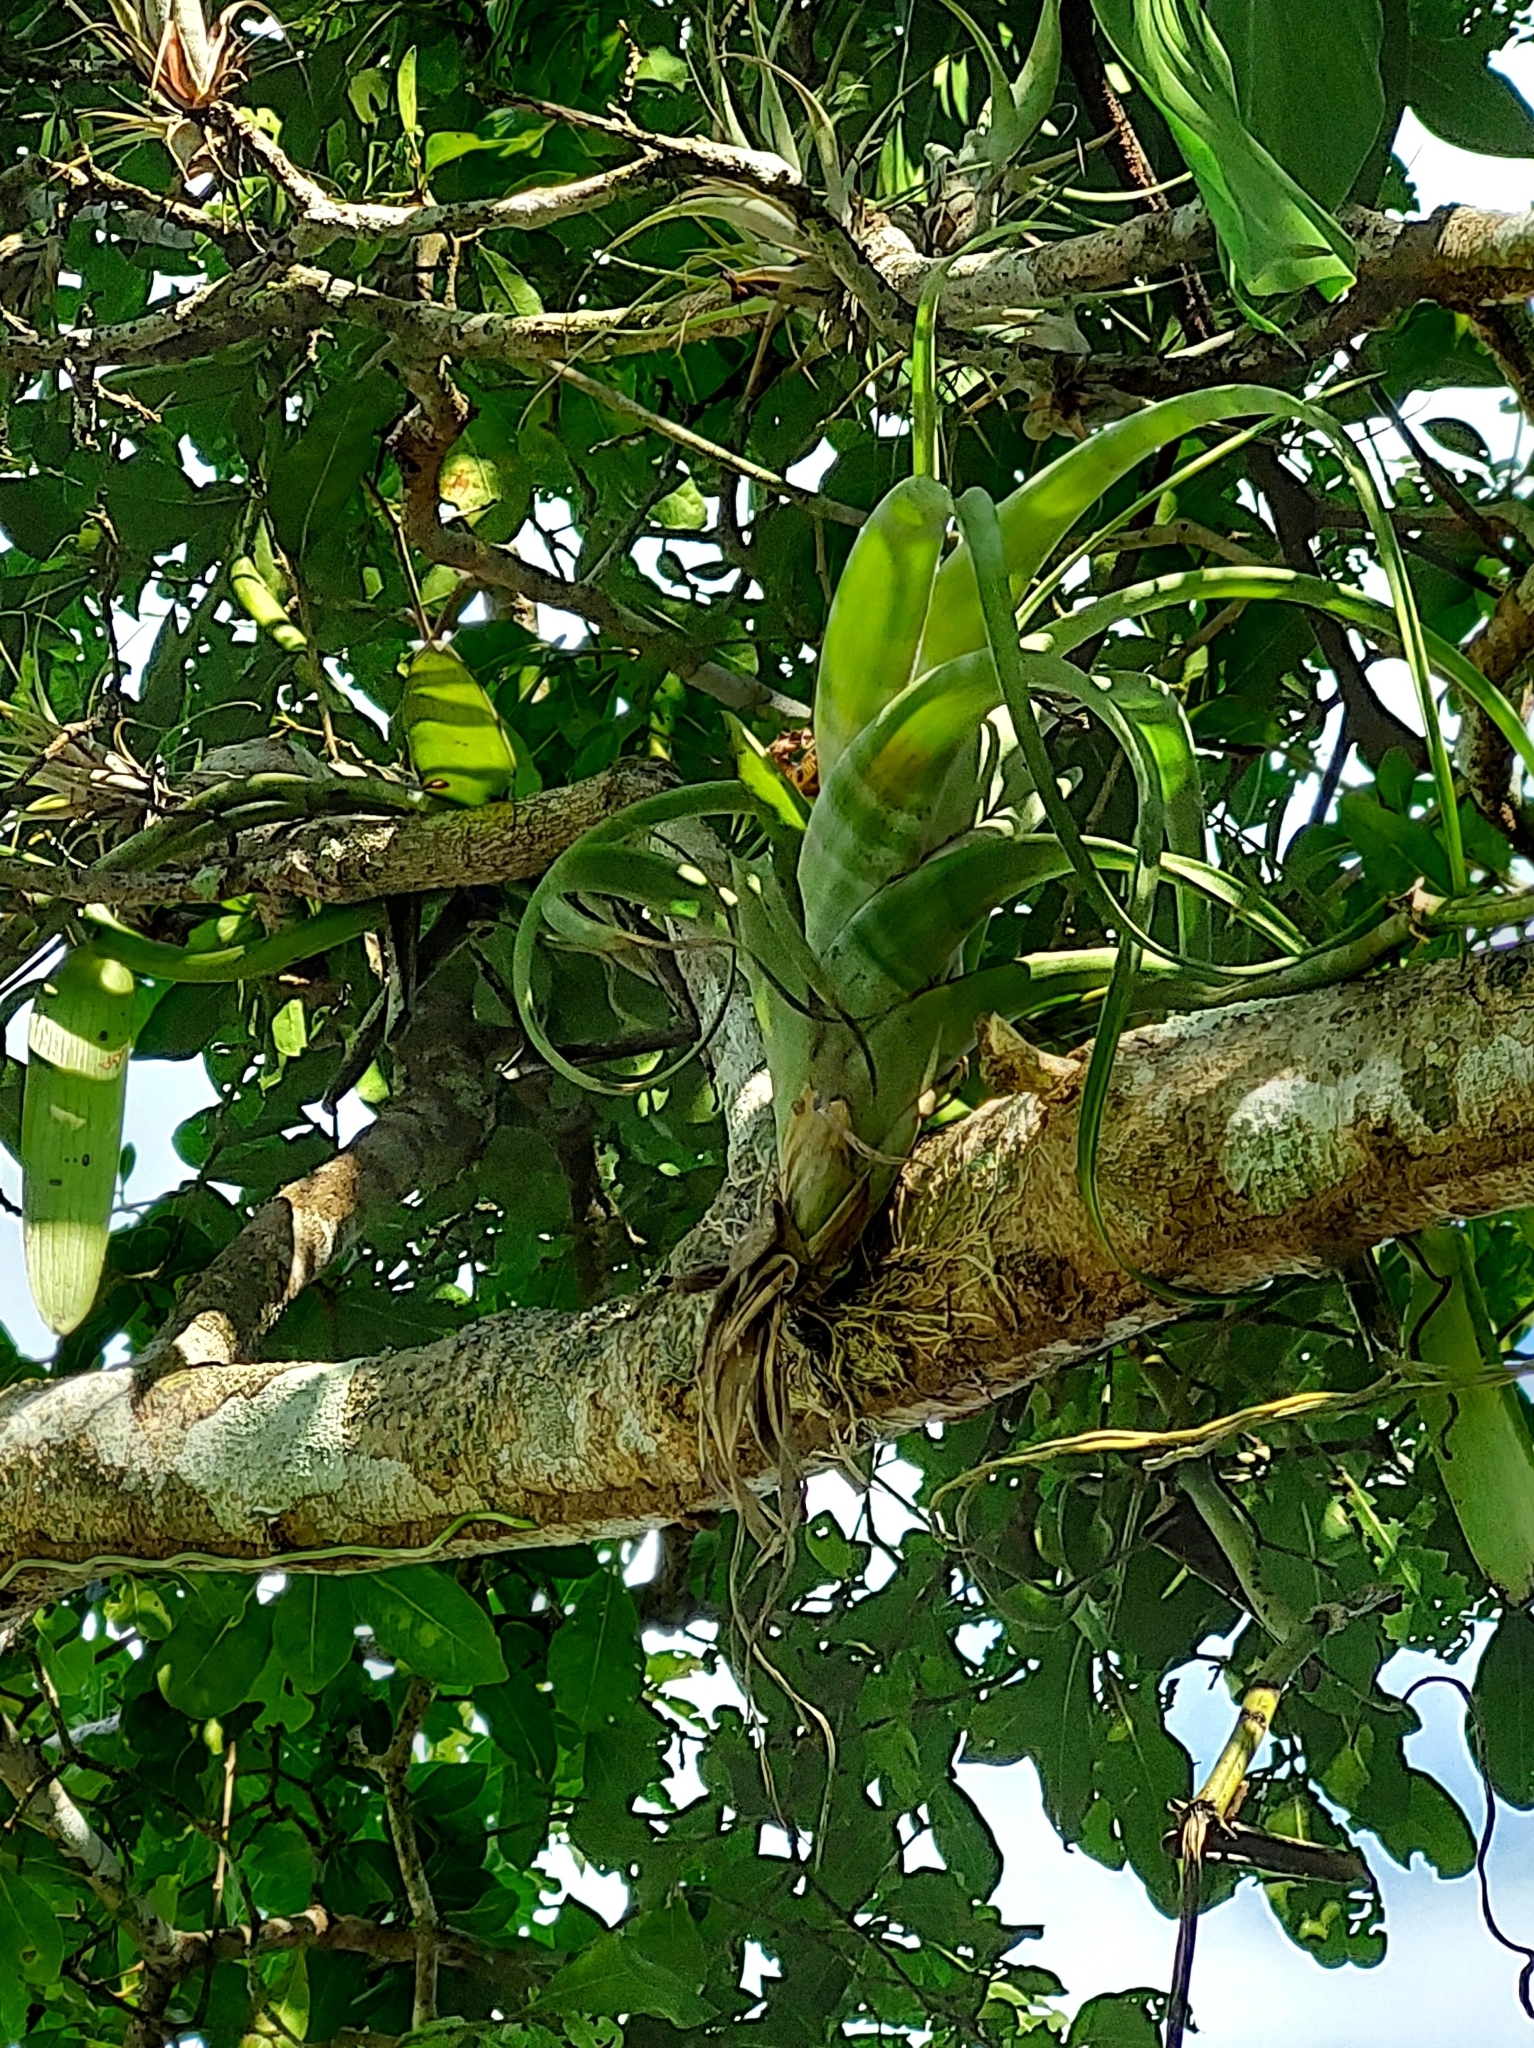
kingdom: Plantae
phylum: Tracheophyta
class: Liliopsida
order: Poales
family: Bromeliaceae
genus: Tillandsia
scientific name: Tillandsia flexuosa
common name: Banded airplant
